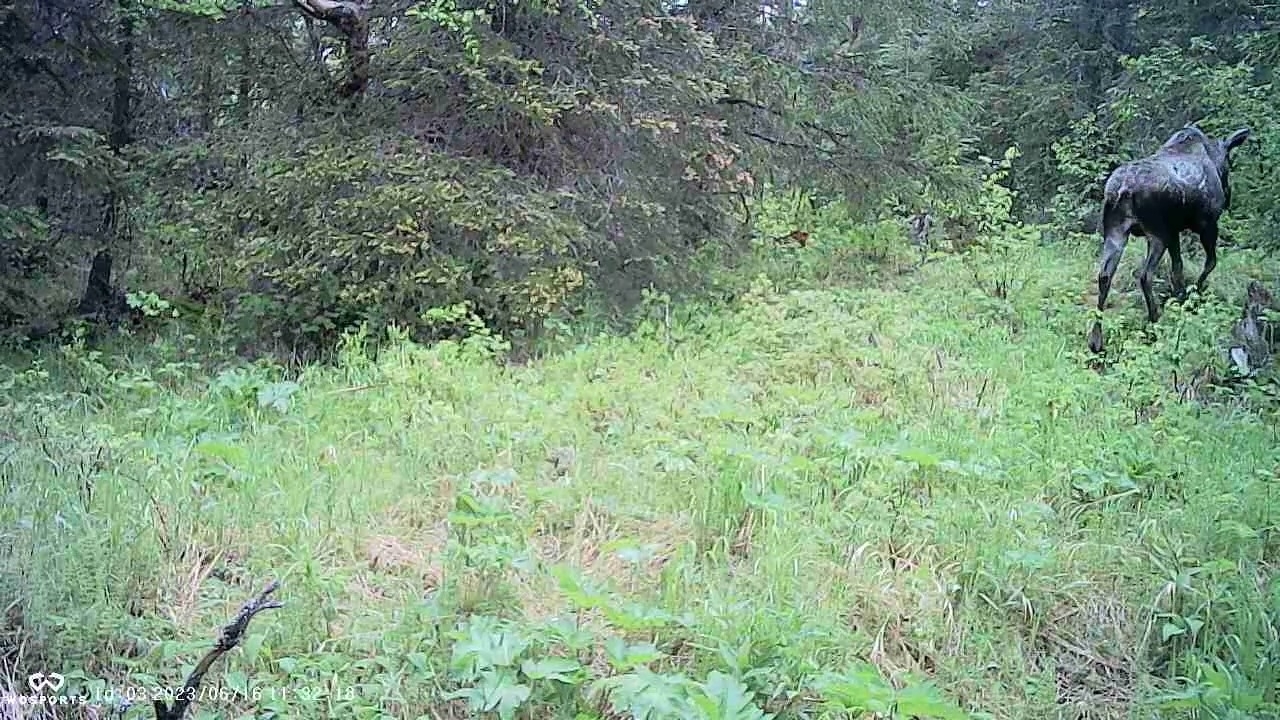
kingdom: Animalia
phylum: Chordata
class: Mammalia
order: Artiodactyla
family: Cervidae
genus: Alces
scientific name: Alces alces
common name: Moose
